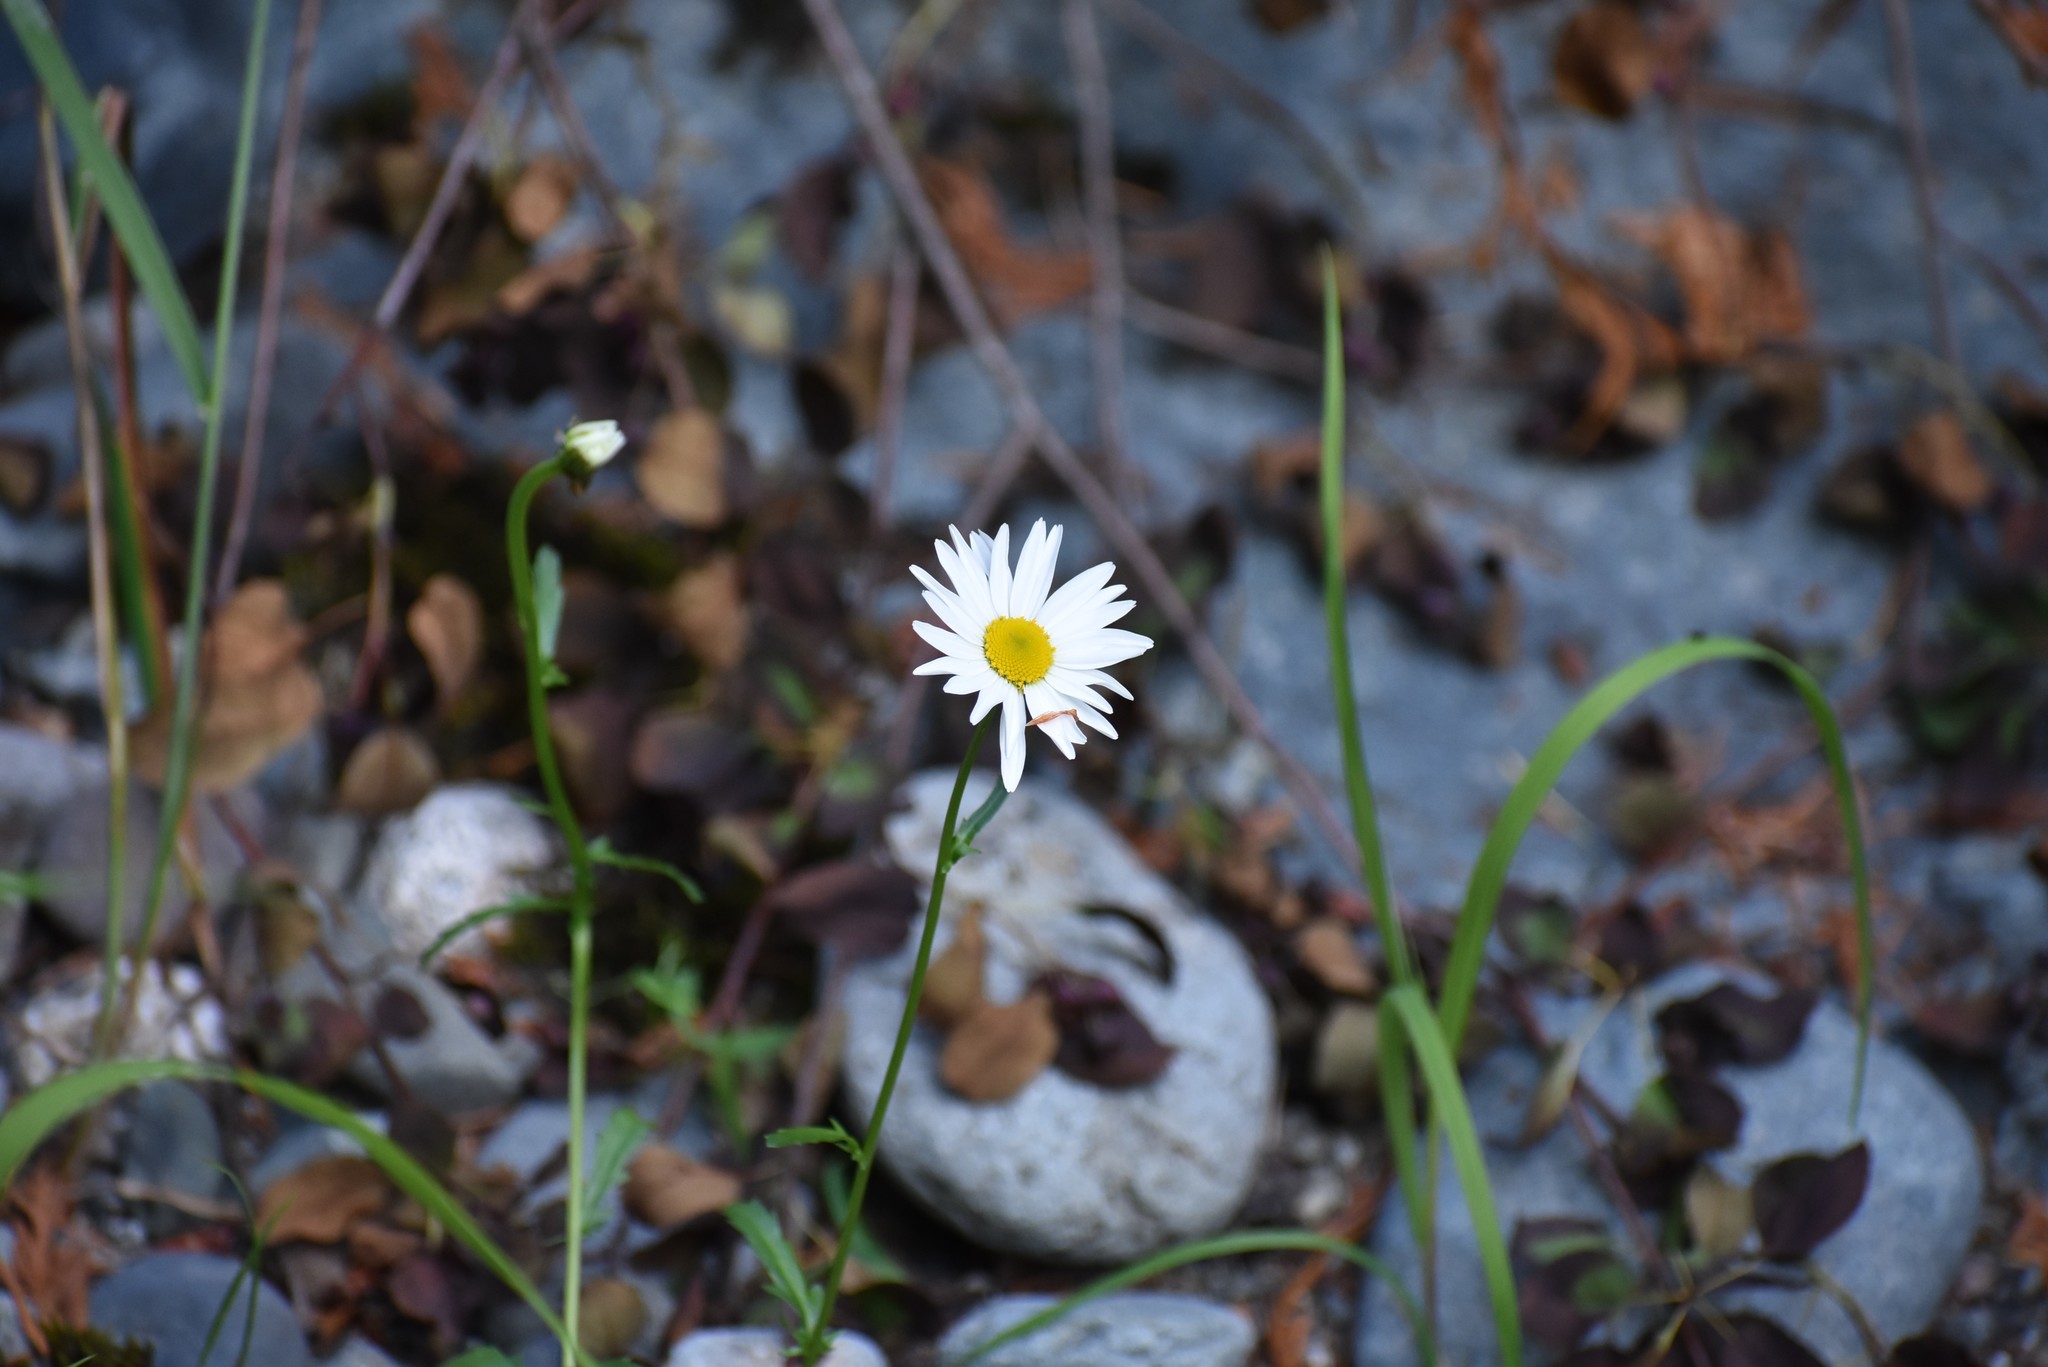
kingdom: Plantae
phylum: Tracheophyta
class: Magnoliopsida
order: Asterales
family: Asteraceae
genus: Leucanthemum
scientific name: Leucanthemum vulgare
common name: Oxeye daisy
